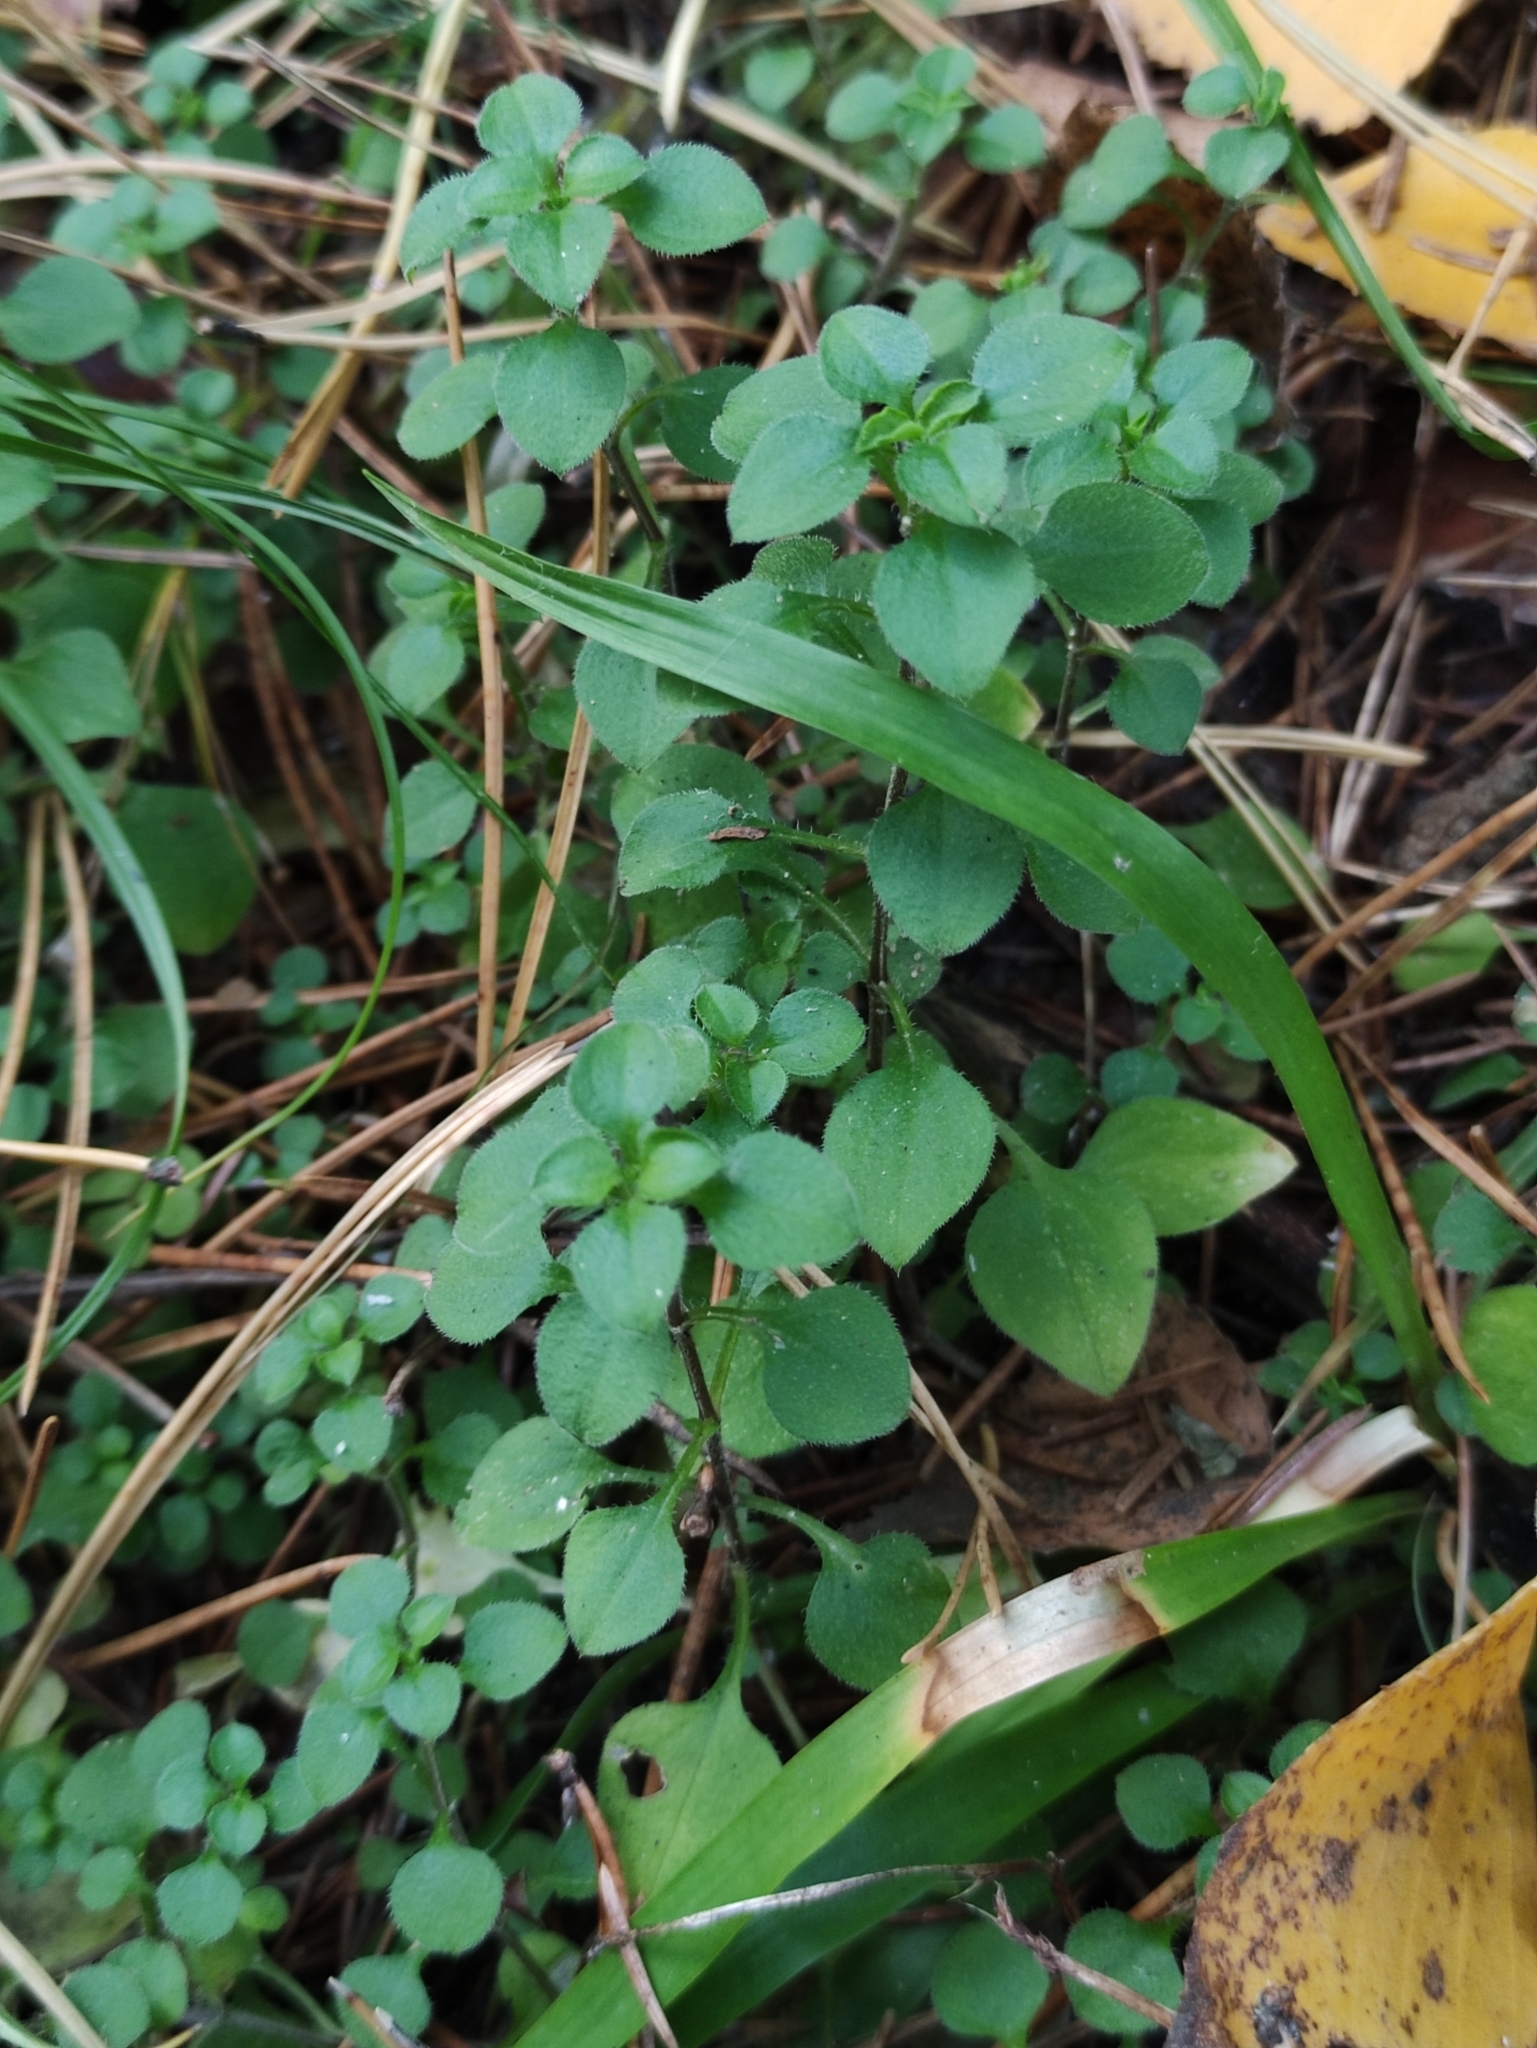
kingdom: Plantae
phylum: Tracheophyta
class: Magnoliopsida
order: Caryophyllales
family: Caryophyllaceae
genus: Moehringia
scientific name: Moehringia trinervia
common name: Three-nerved sandwort
